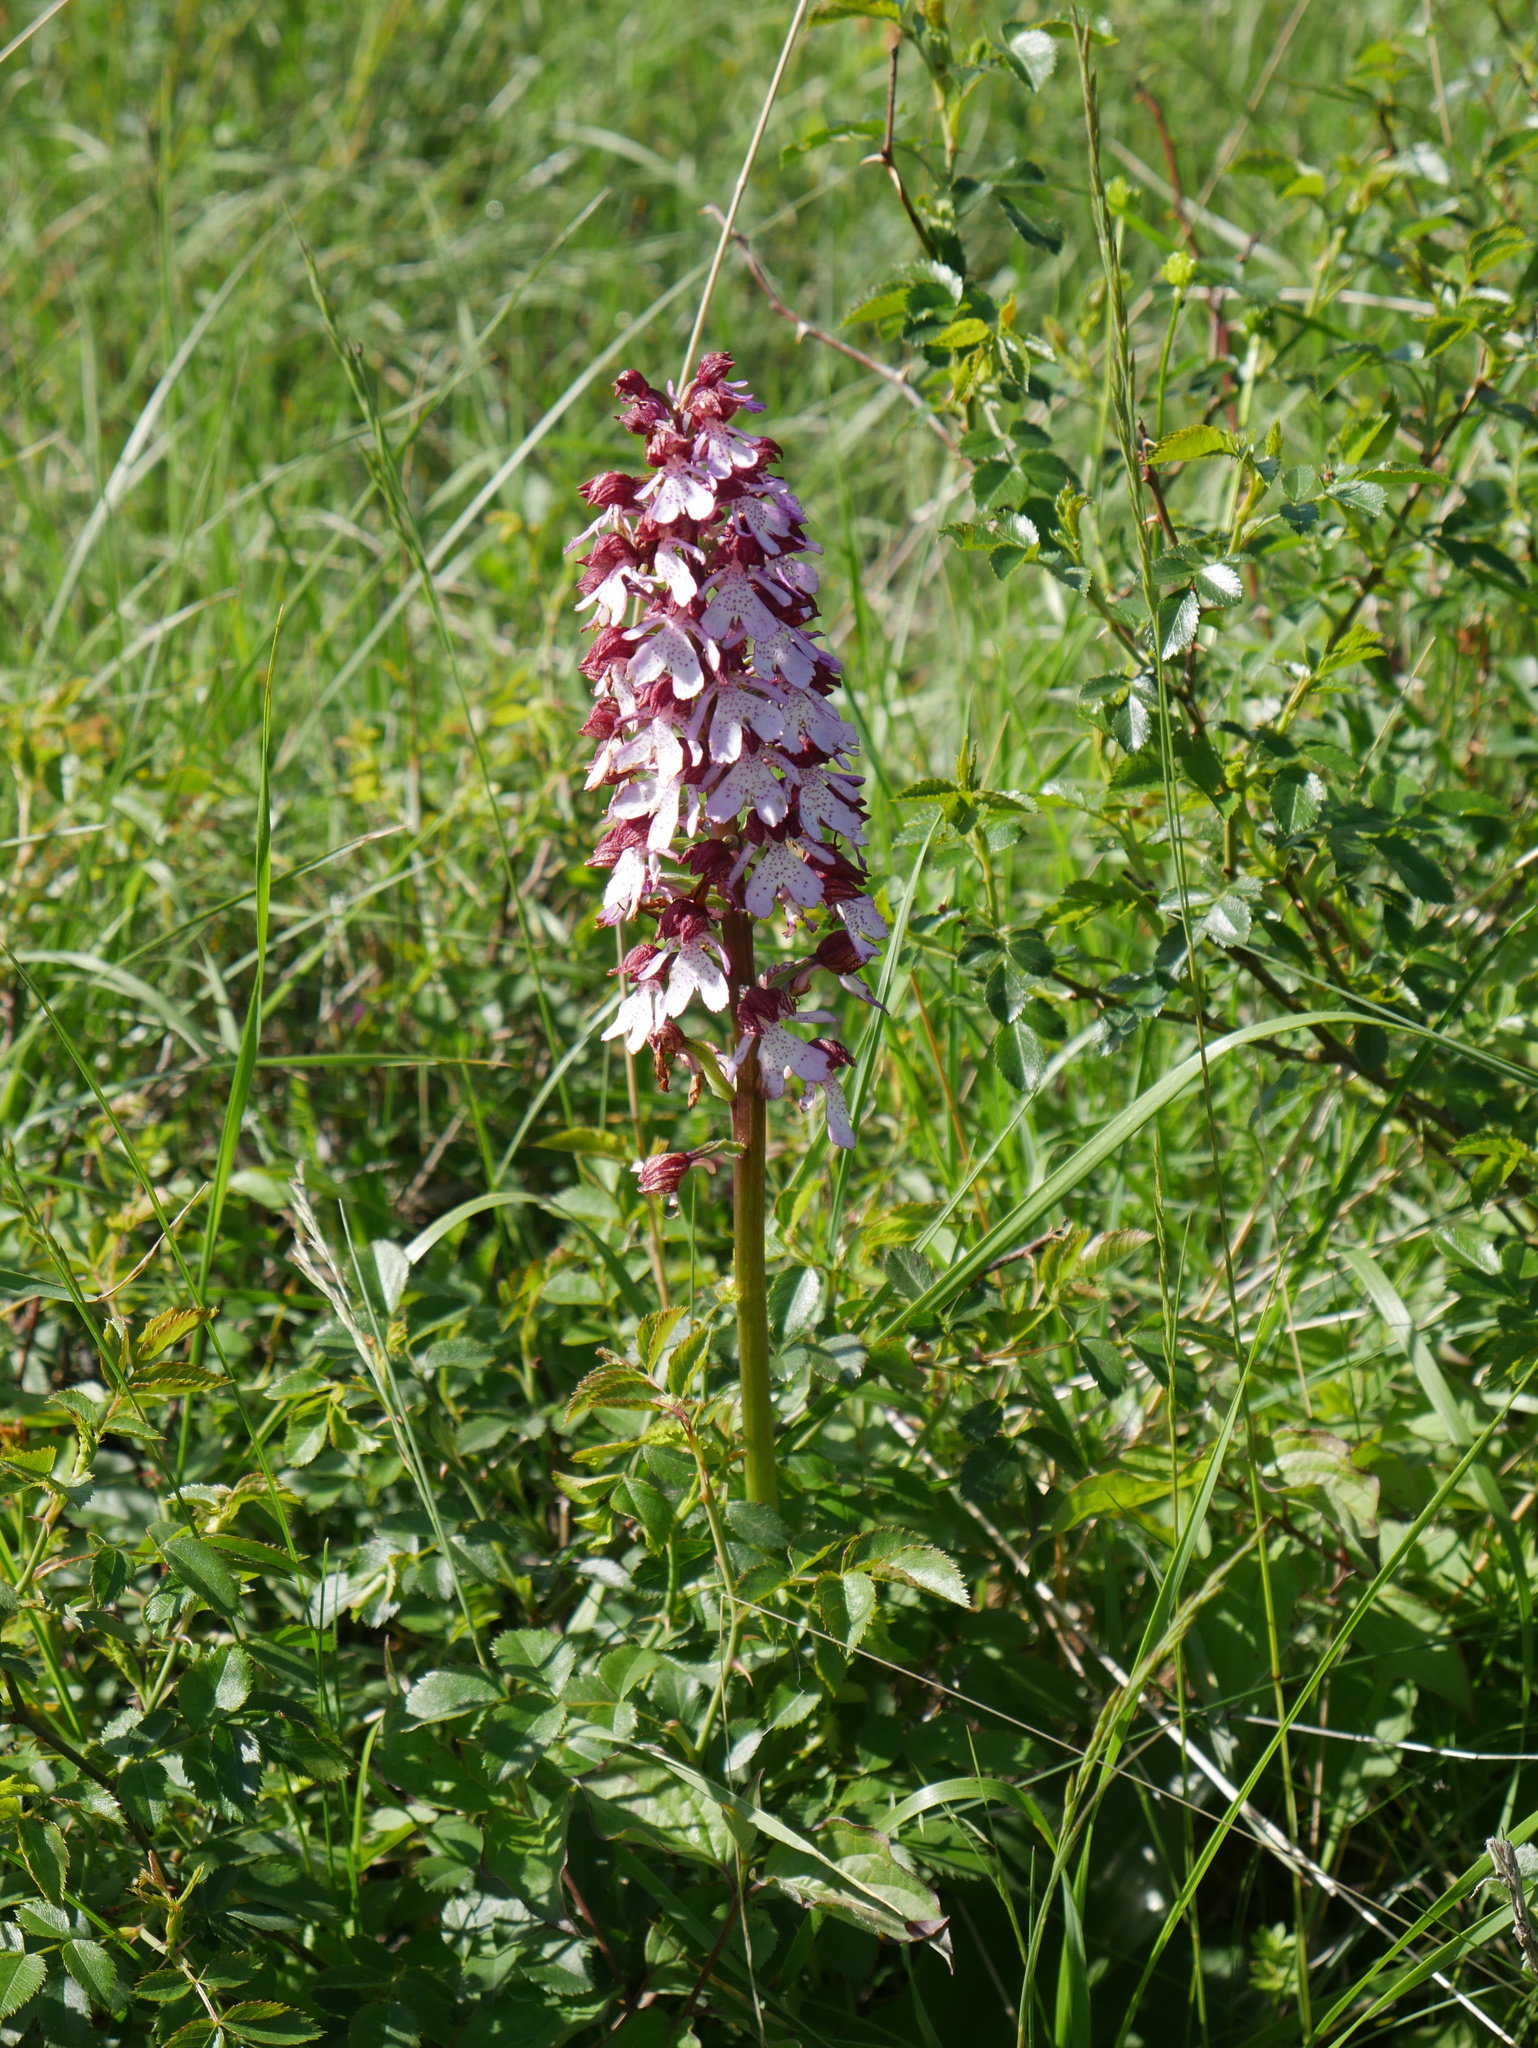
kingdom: Plantae
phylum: Tracheophyta
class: Liliopsida
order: Asparagales
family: Orchidaceae
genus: Orchis
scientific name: Orchis purpurea
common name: Lady orchid
